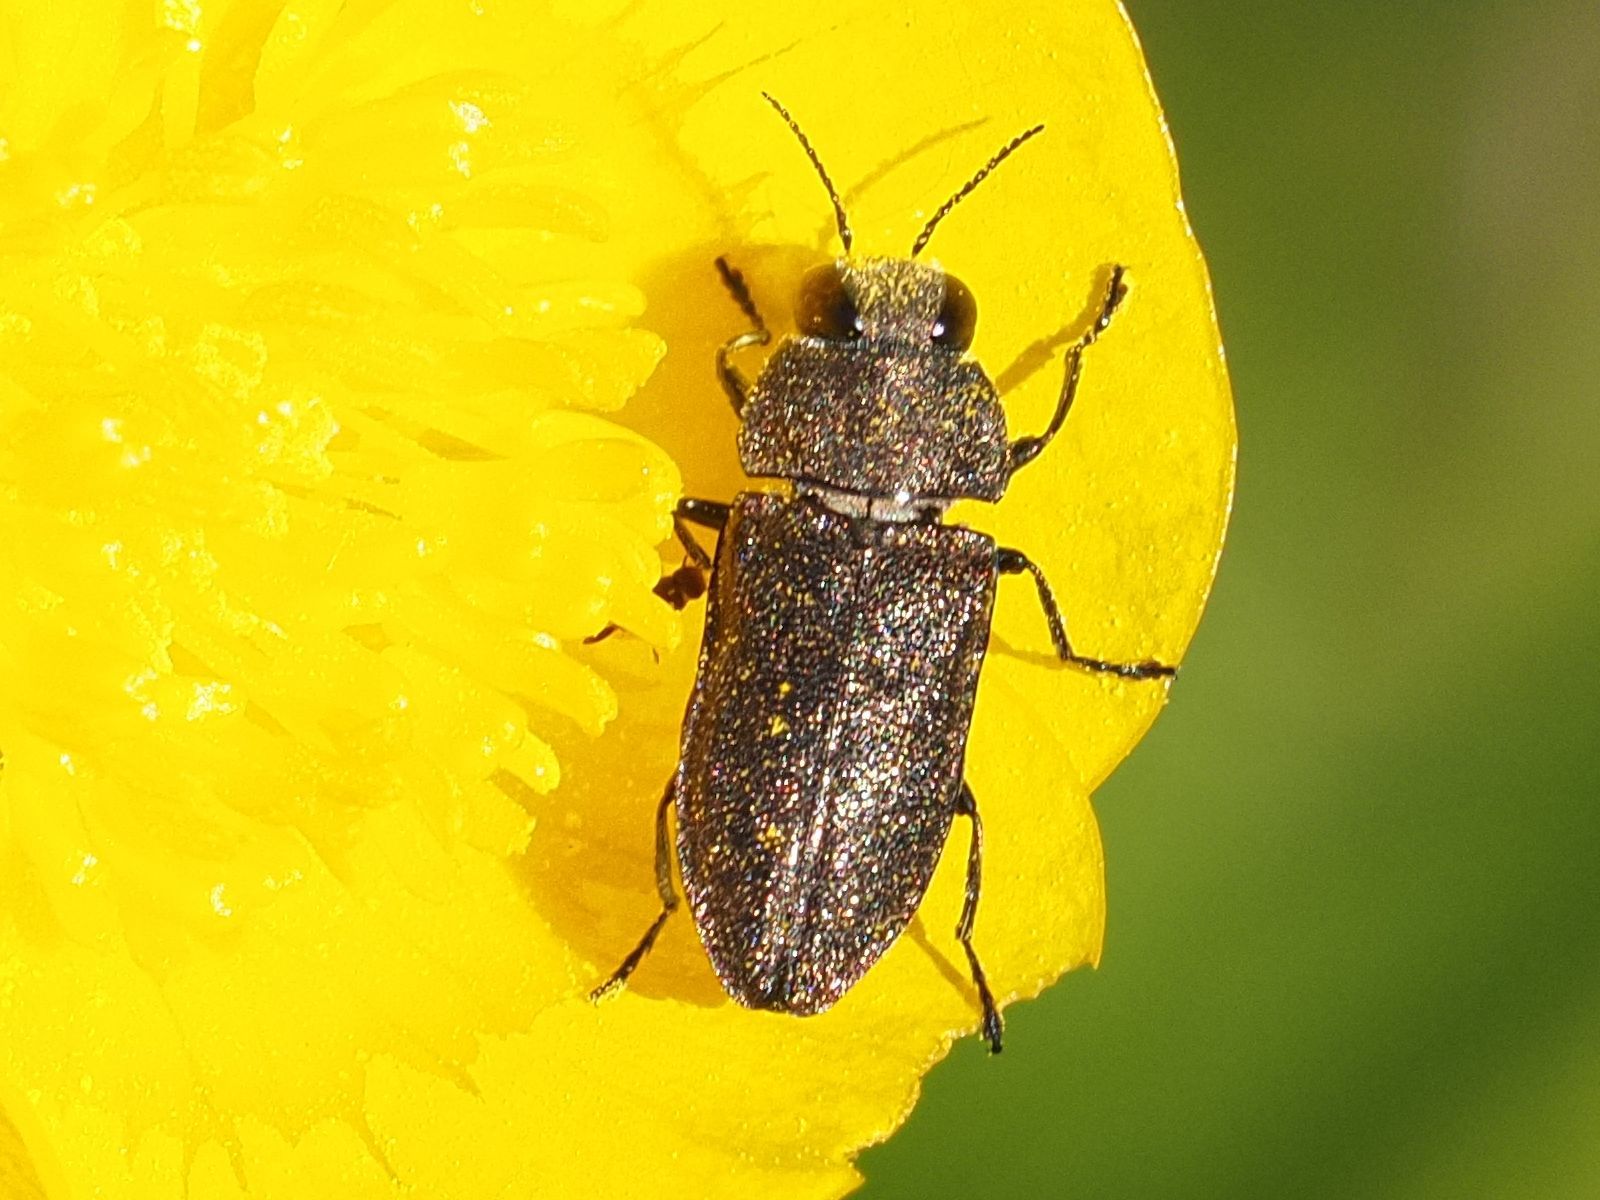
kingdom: Animalia
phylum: Arthropoda
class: Insecta
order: Coleoptera
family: Buprestidae
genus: Anthaxia
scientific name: Anthaxia morio
